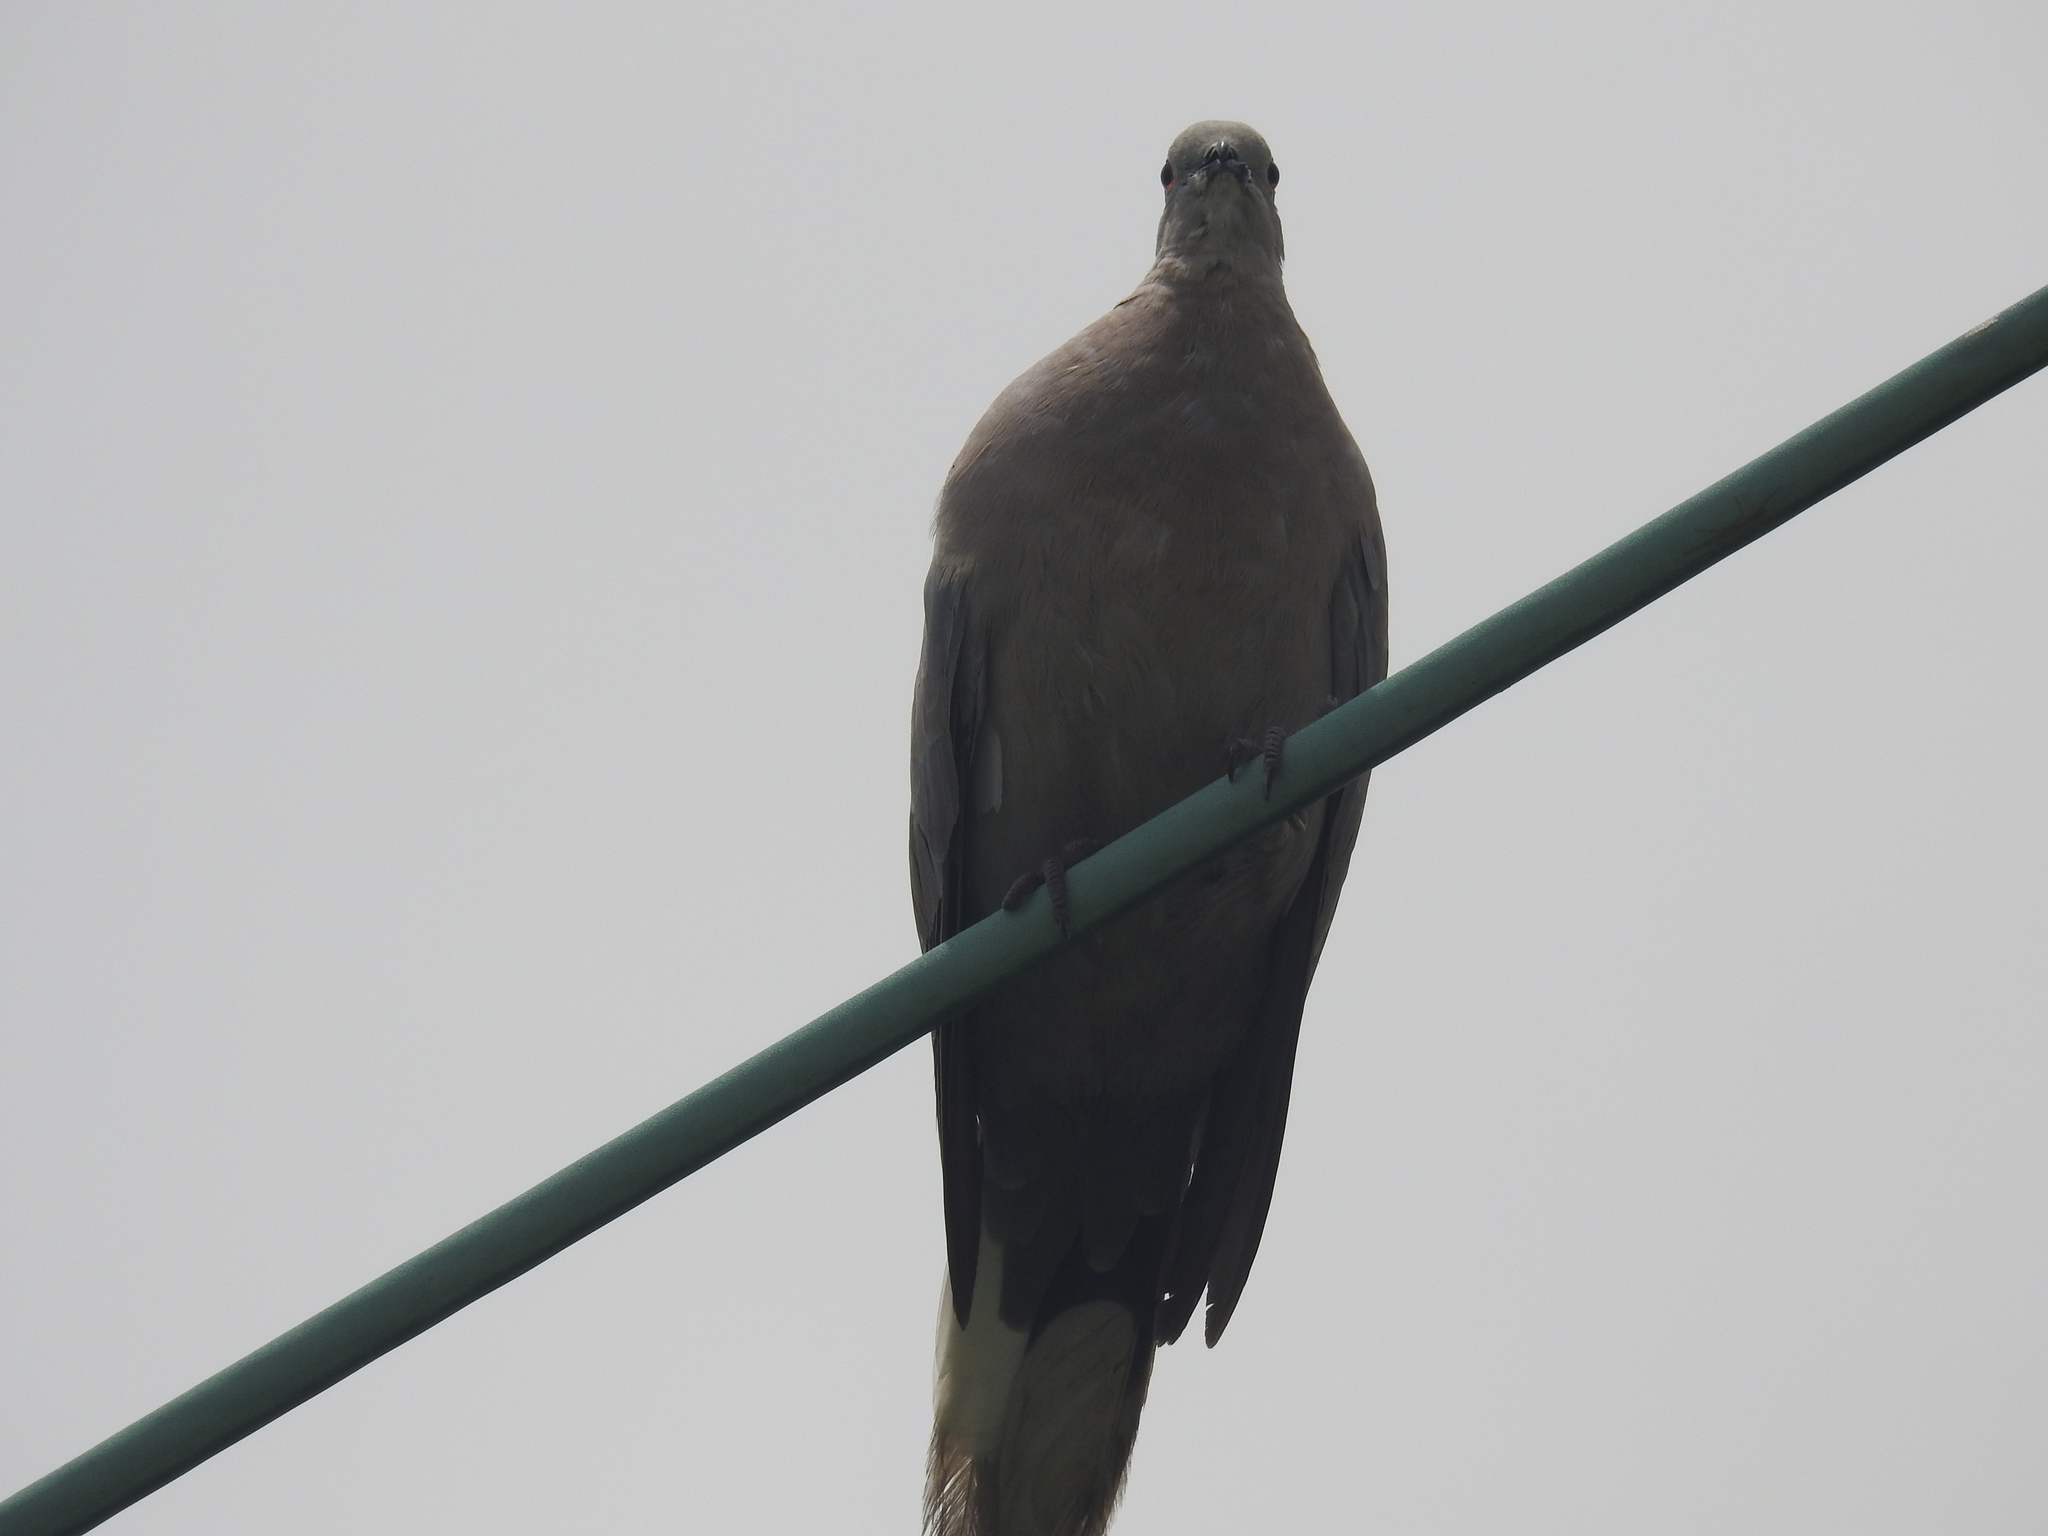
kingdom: Animalia
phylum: Chordata
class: Aves
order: Columbiformes
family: Columbidae
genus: Streptopelia
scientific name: Streptopelia decaocto
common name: Eurasian collared dove
